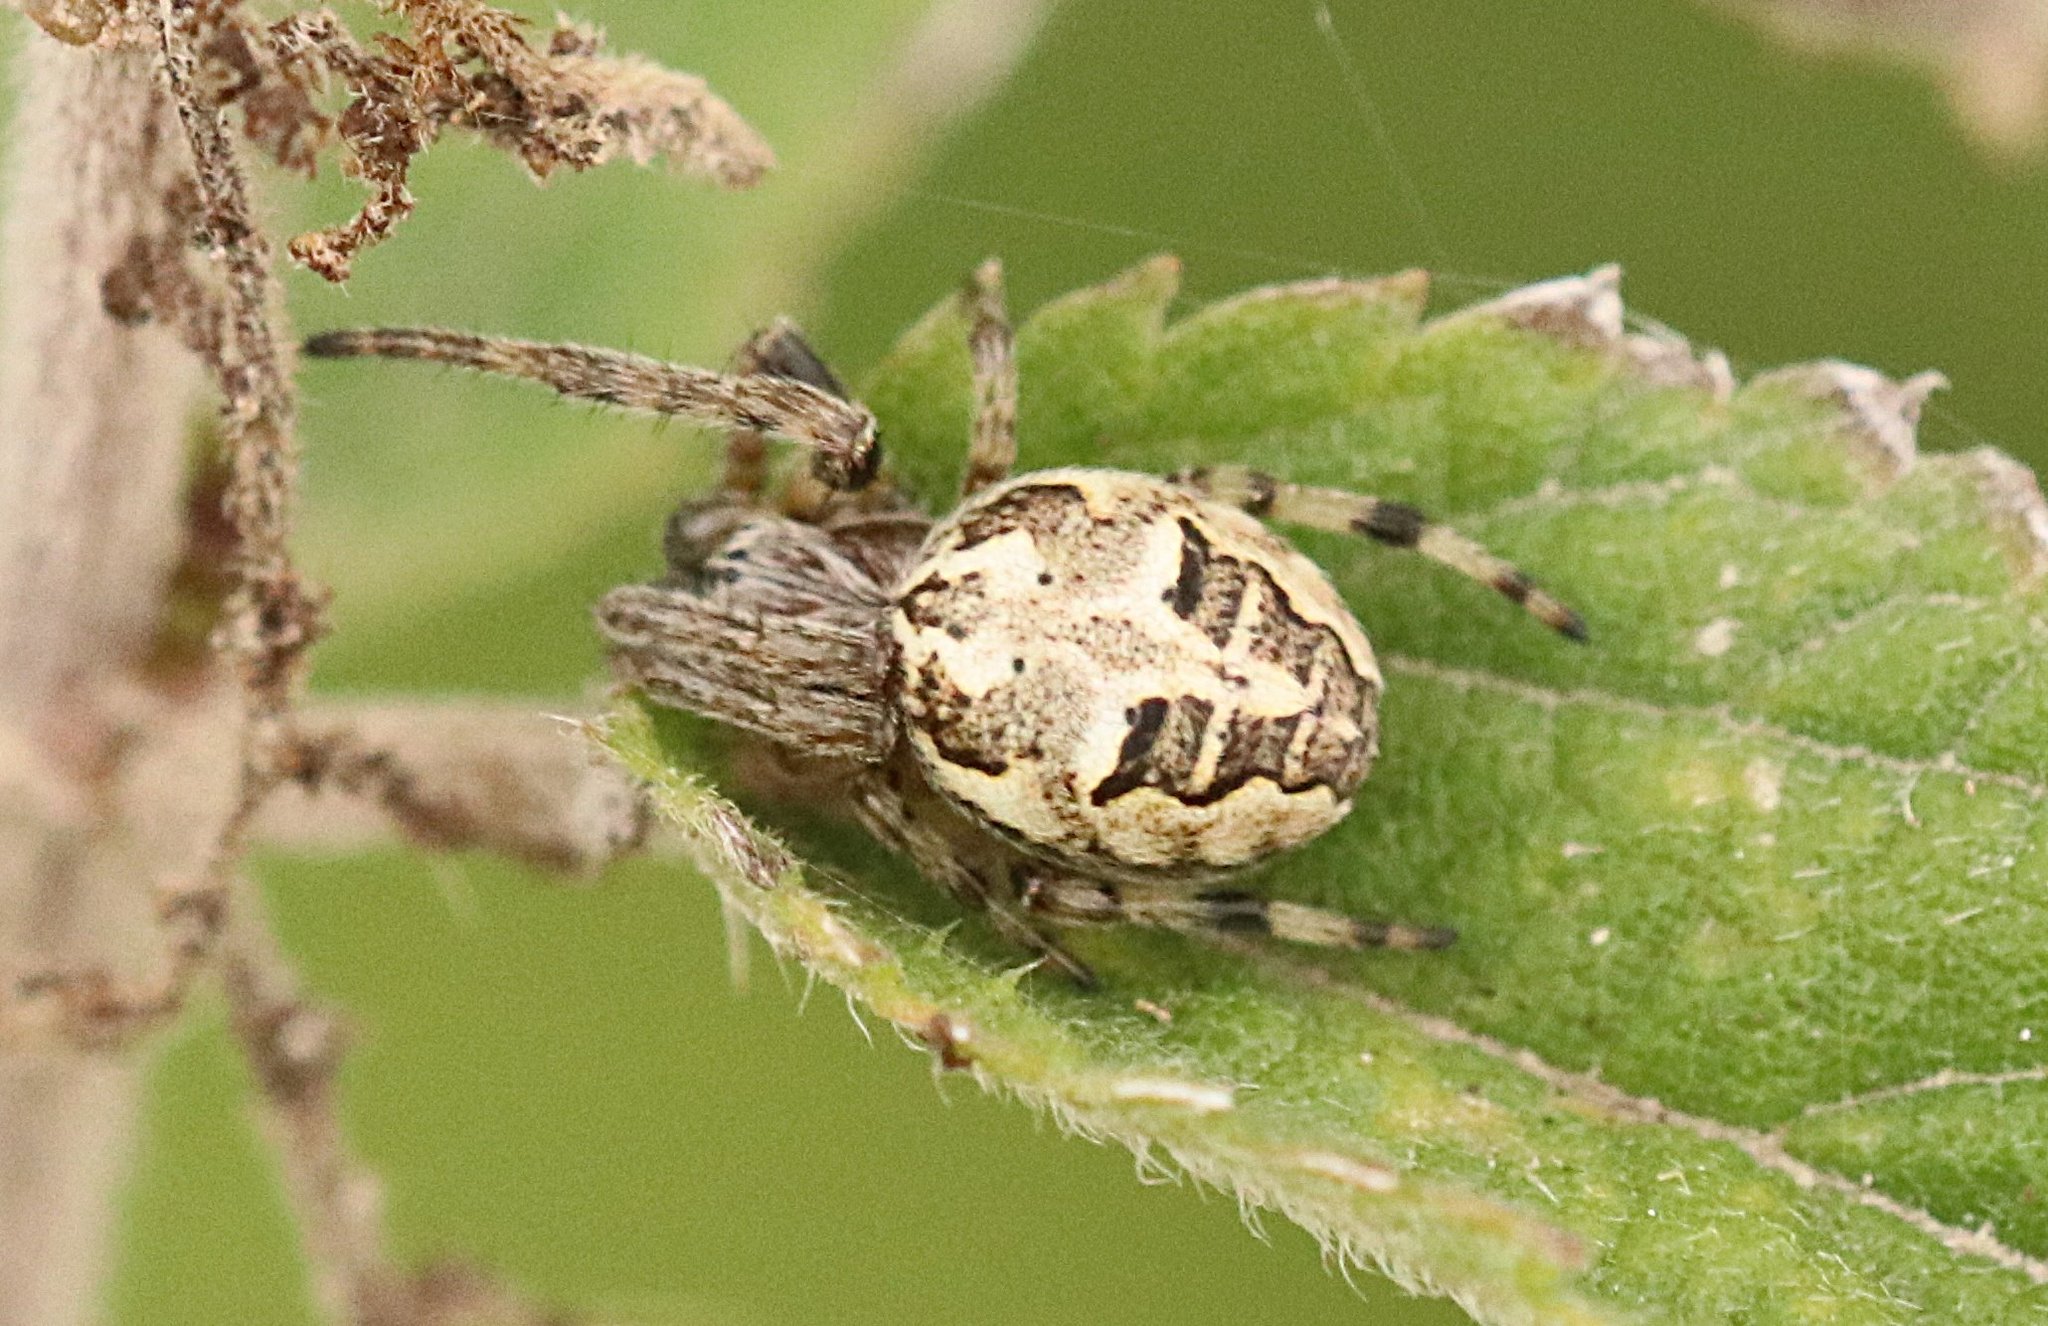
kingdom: Animalia
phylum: Arthropoda
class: Arachnida
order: Araneae
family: Araneidae
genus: Larinioides
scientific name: Larinioides cornutus
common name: Furrow orbweaver
